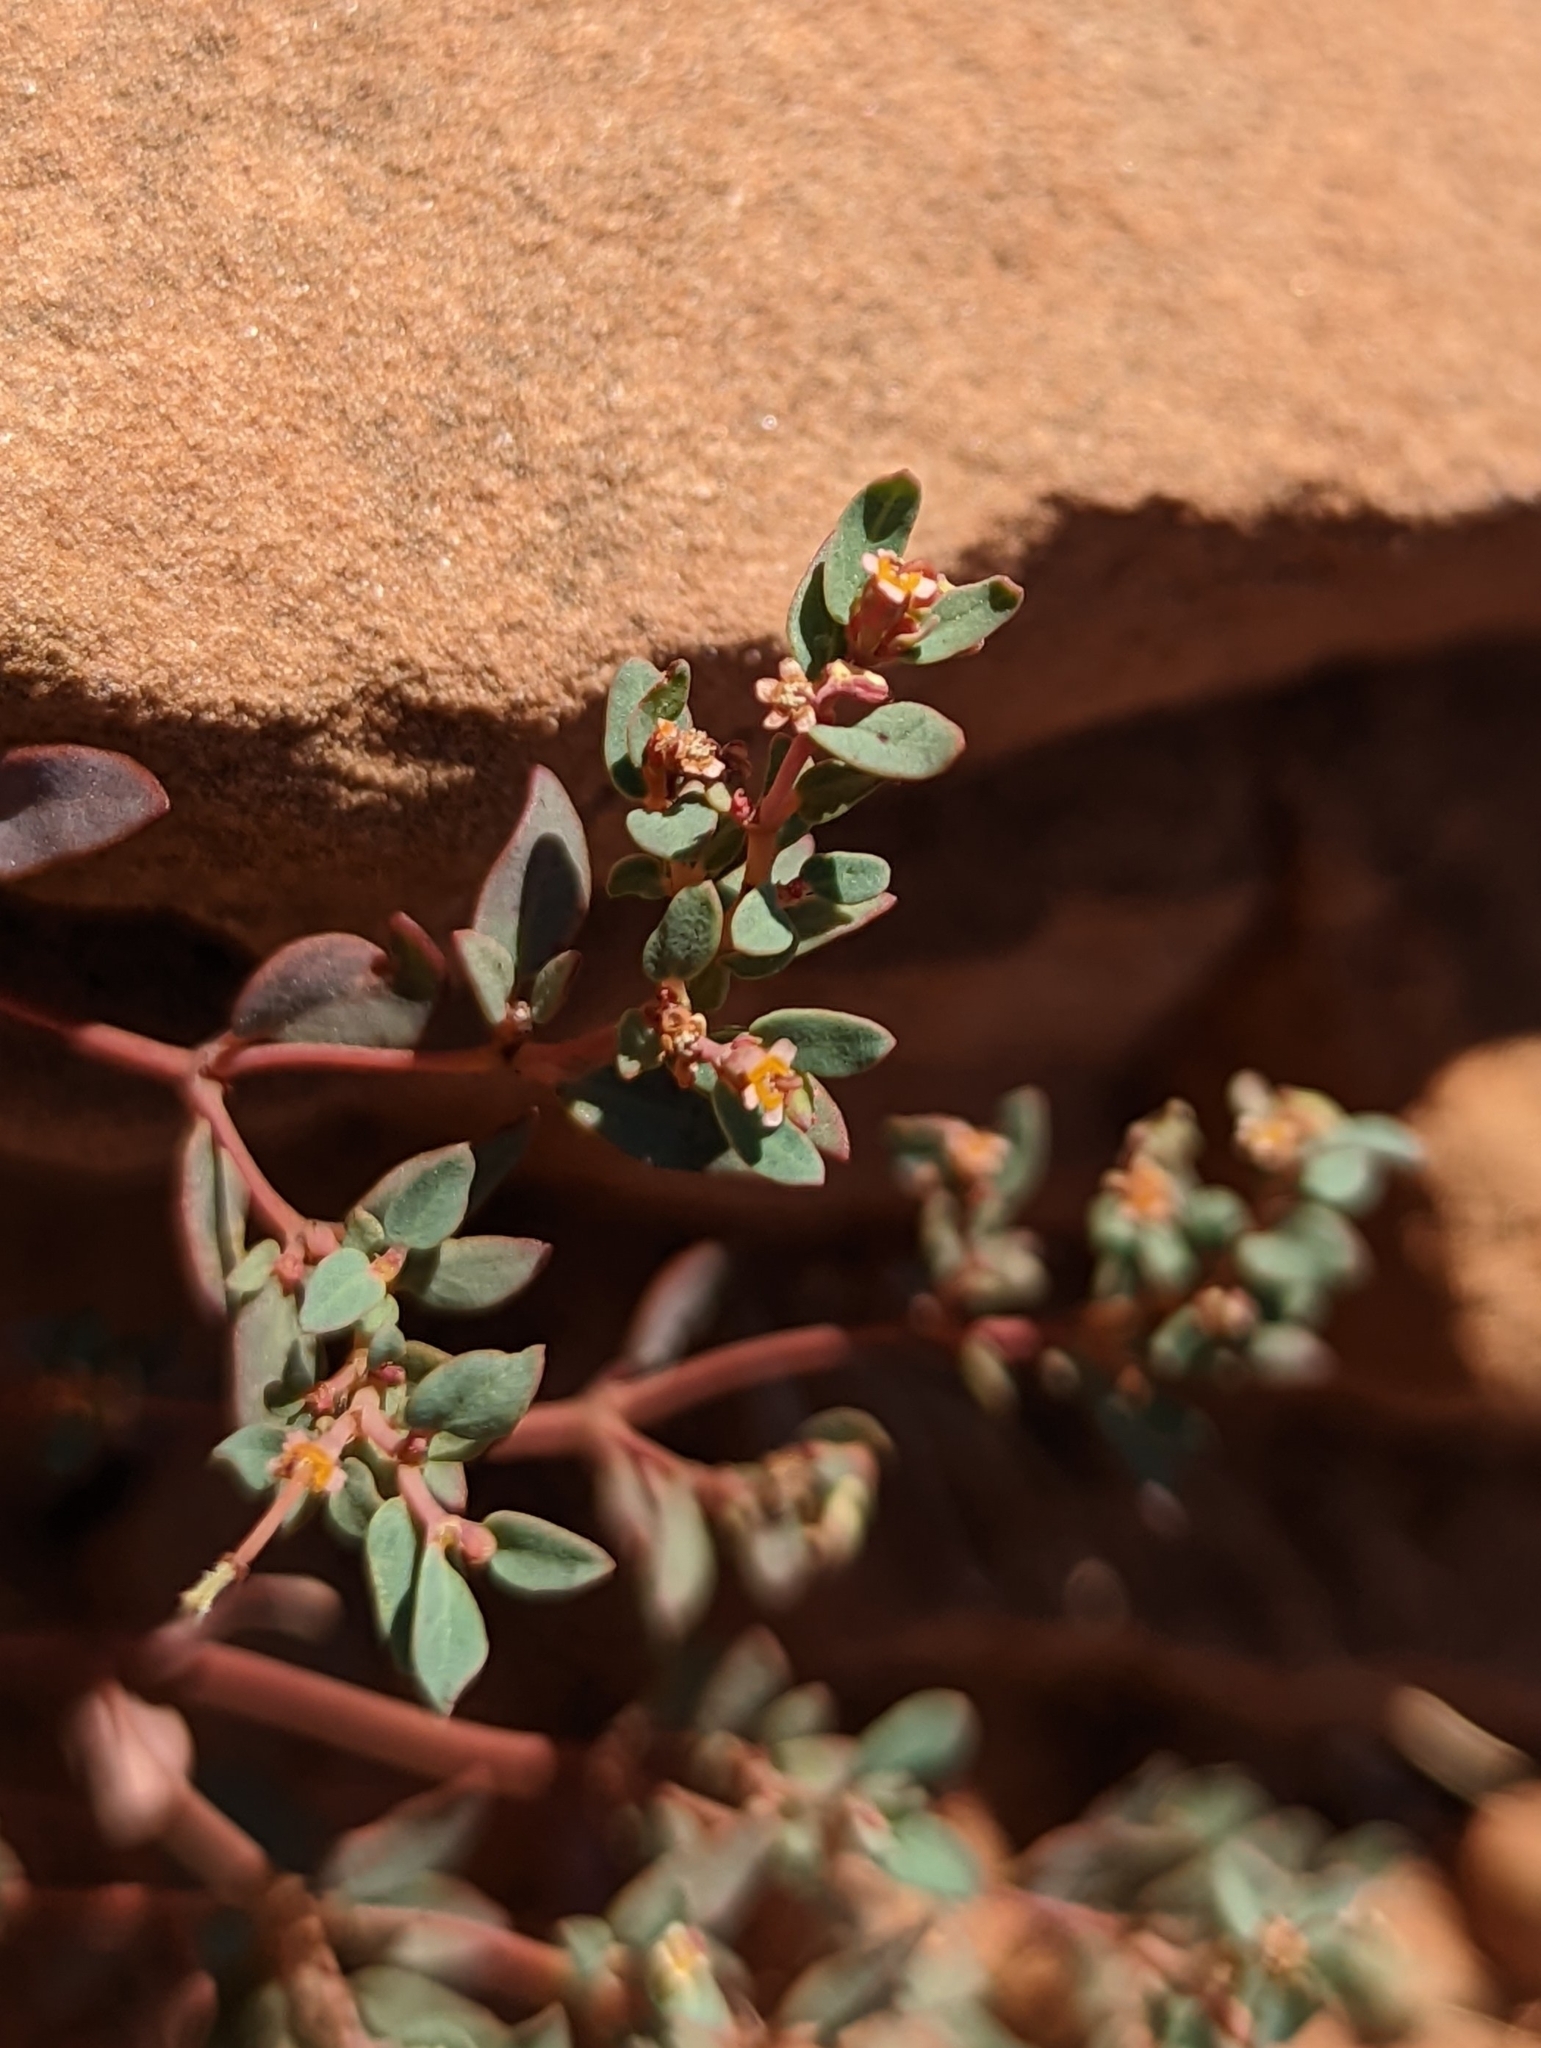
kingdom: Plantae
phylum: Tracheophyta
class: Magnoliopsida
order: Malpighiales
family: Euphorbiaceae
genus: Euphorbia
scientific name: Euphorbia fendleri
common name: Fendler's euphorbia
